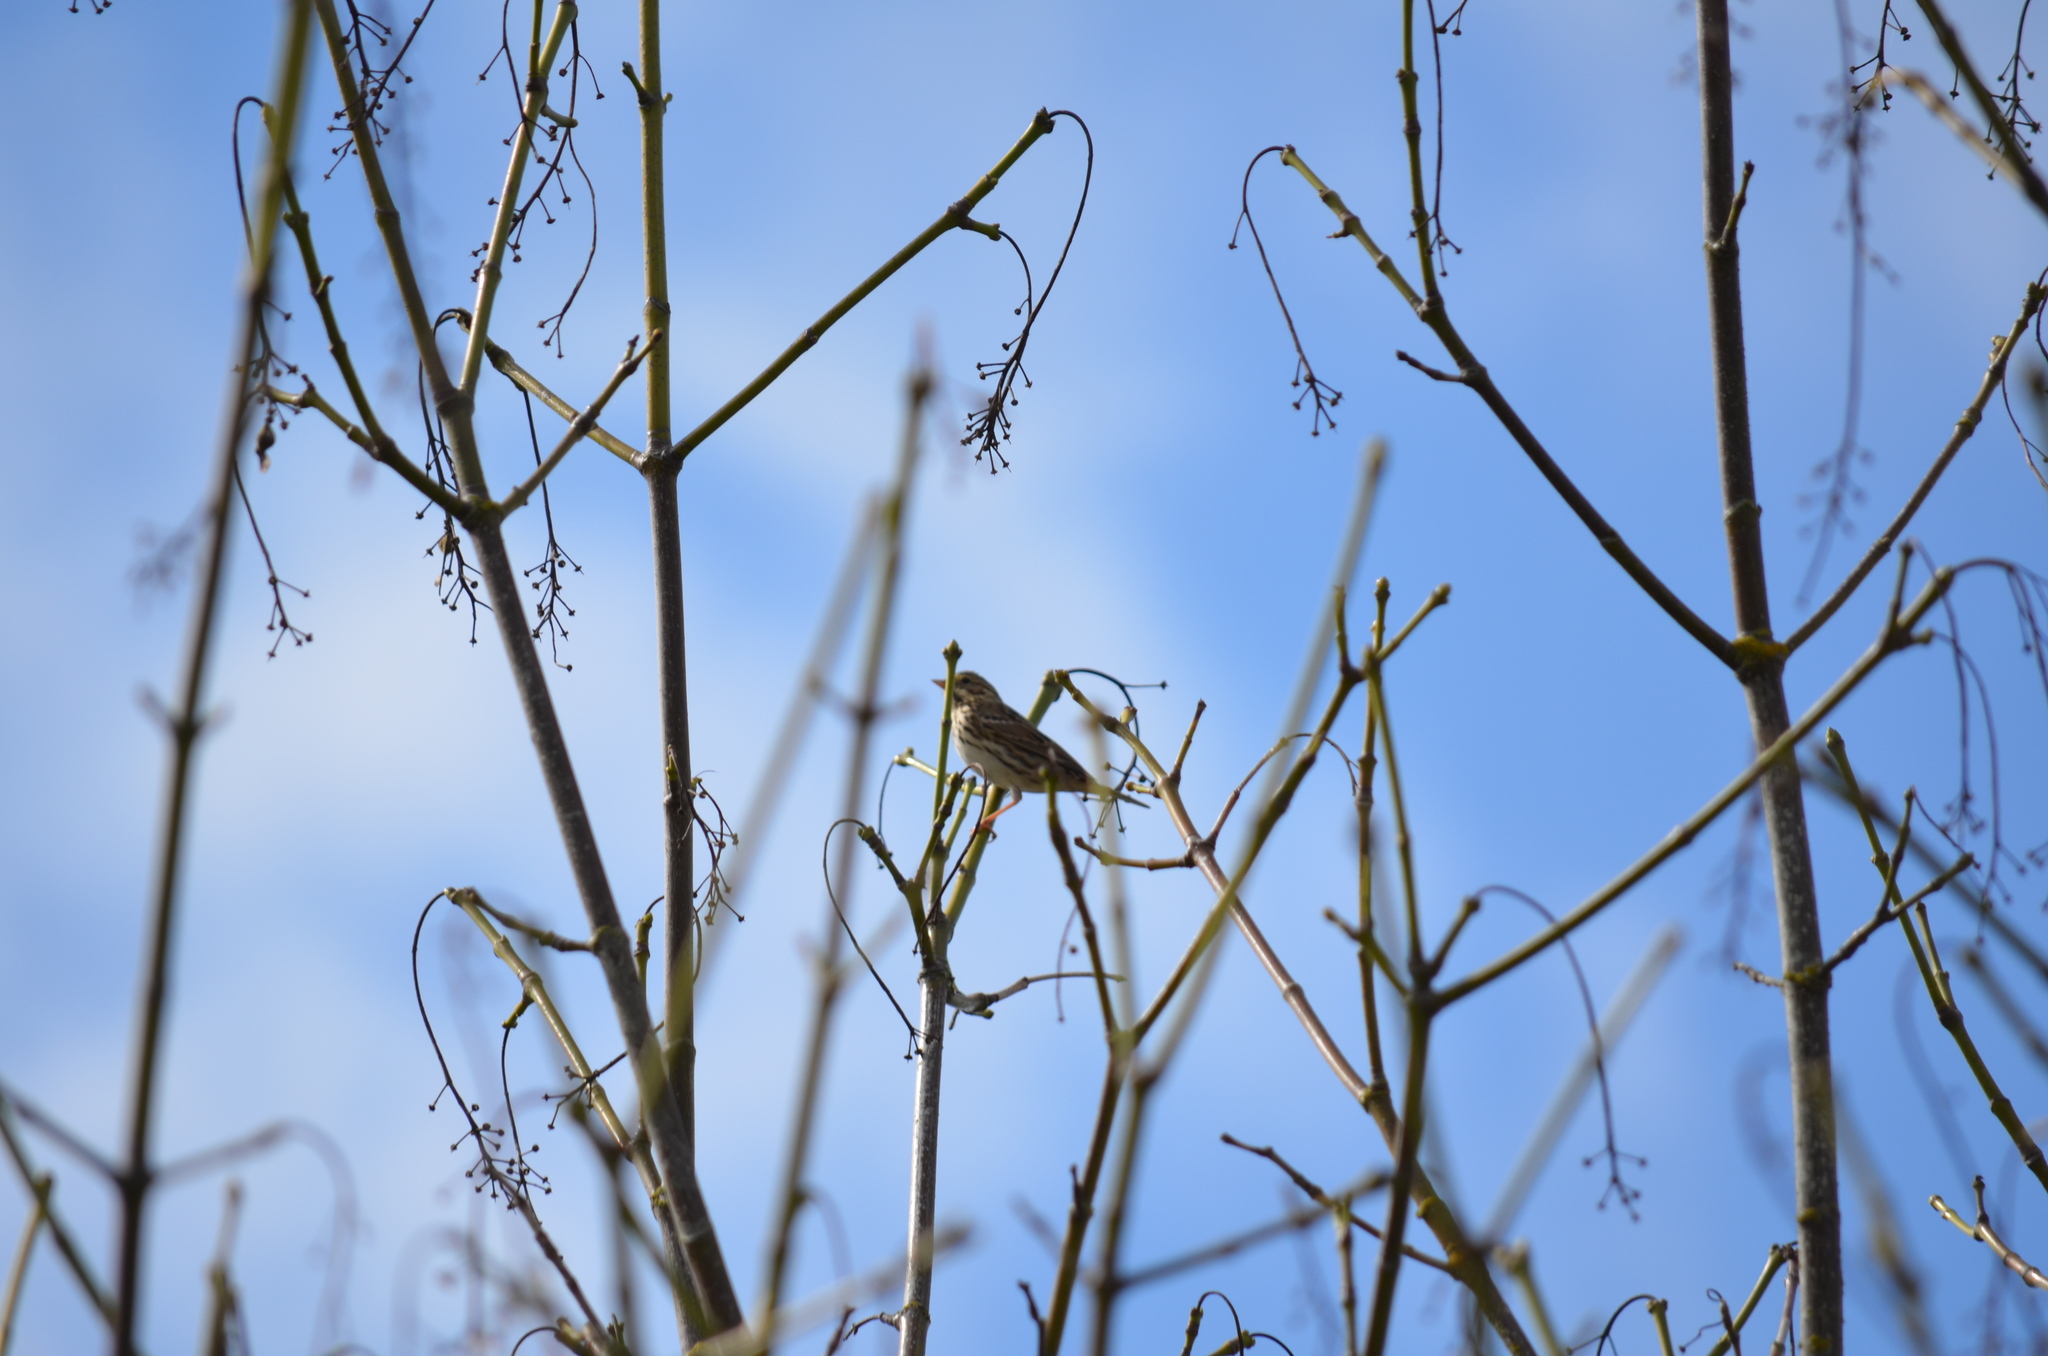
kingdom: Animalia
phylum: Chordata
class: Aves
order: Passeriformes
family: Passerellidae
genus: Passerculus
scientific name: Passerculus sandwichensis
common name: Savannah sparrow
